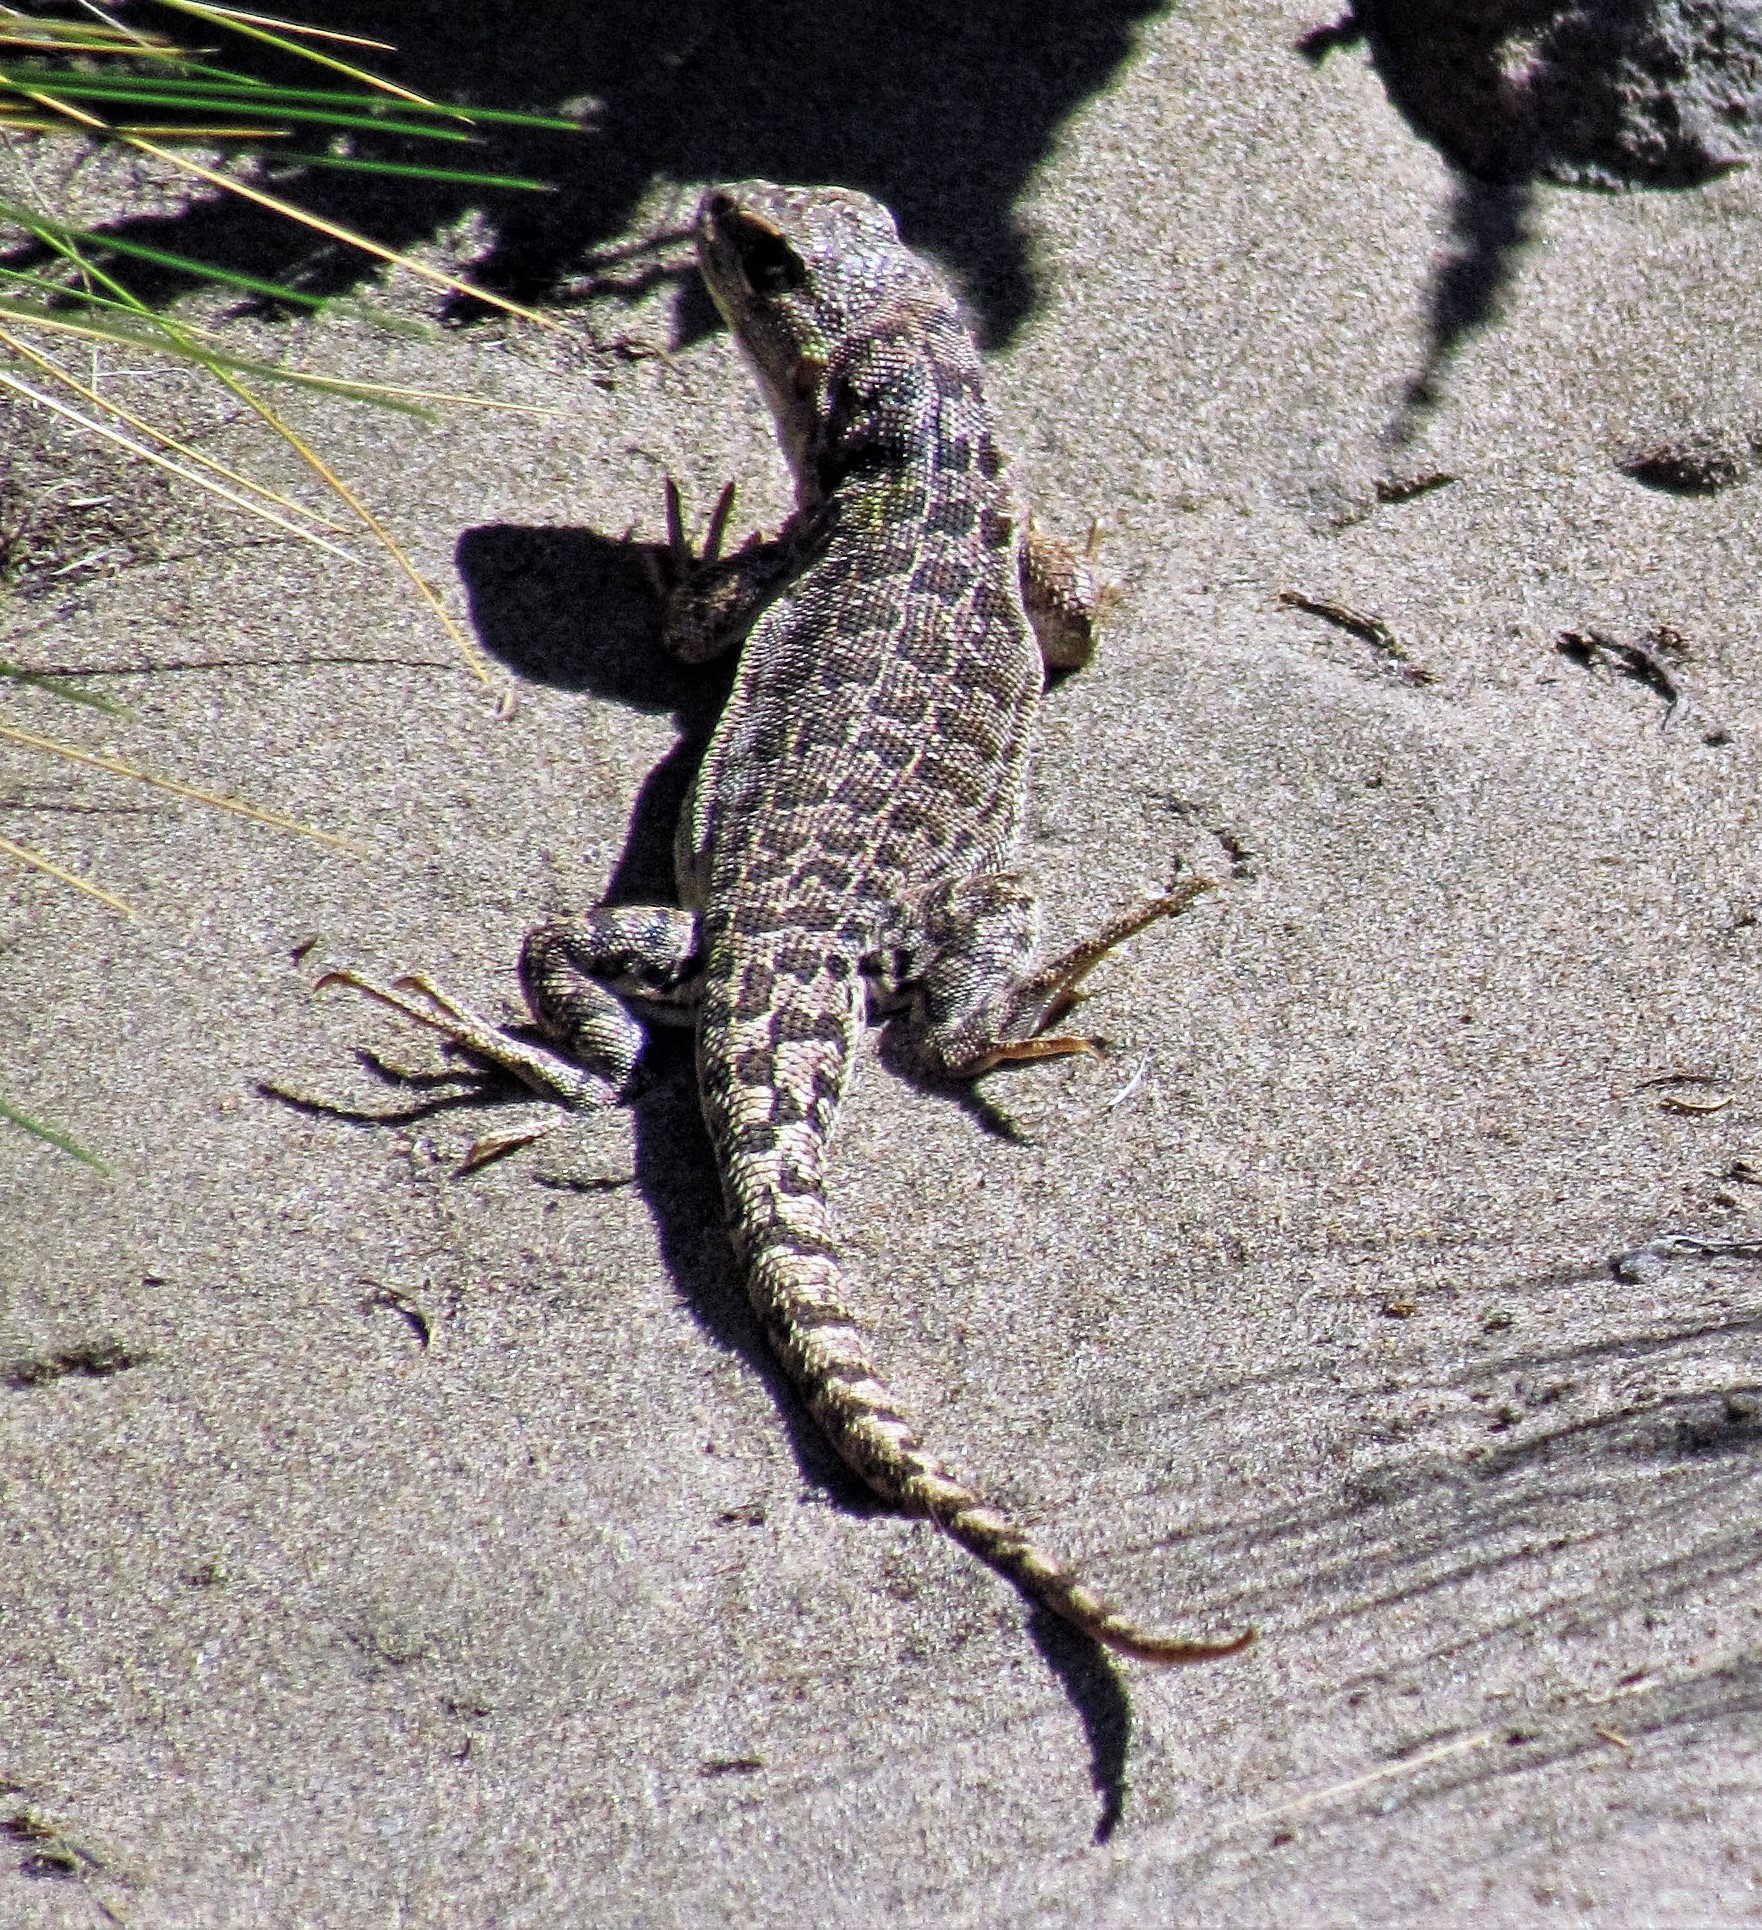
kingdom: Animalia
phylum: Chordata
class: Squamata
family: Liolaemidae
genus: Liolaemus
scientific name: Liolaemus rothi
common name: Roth's sand iguana
